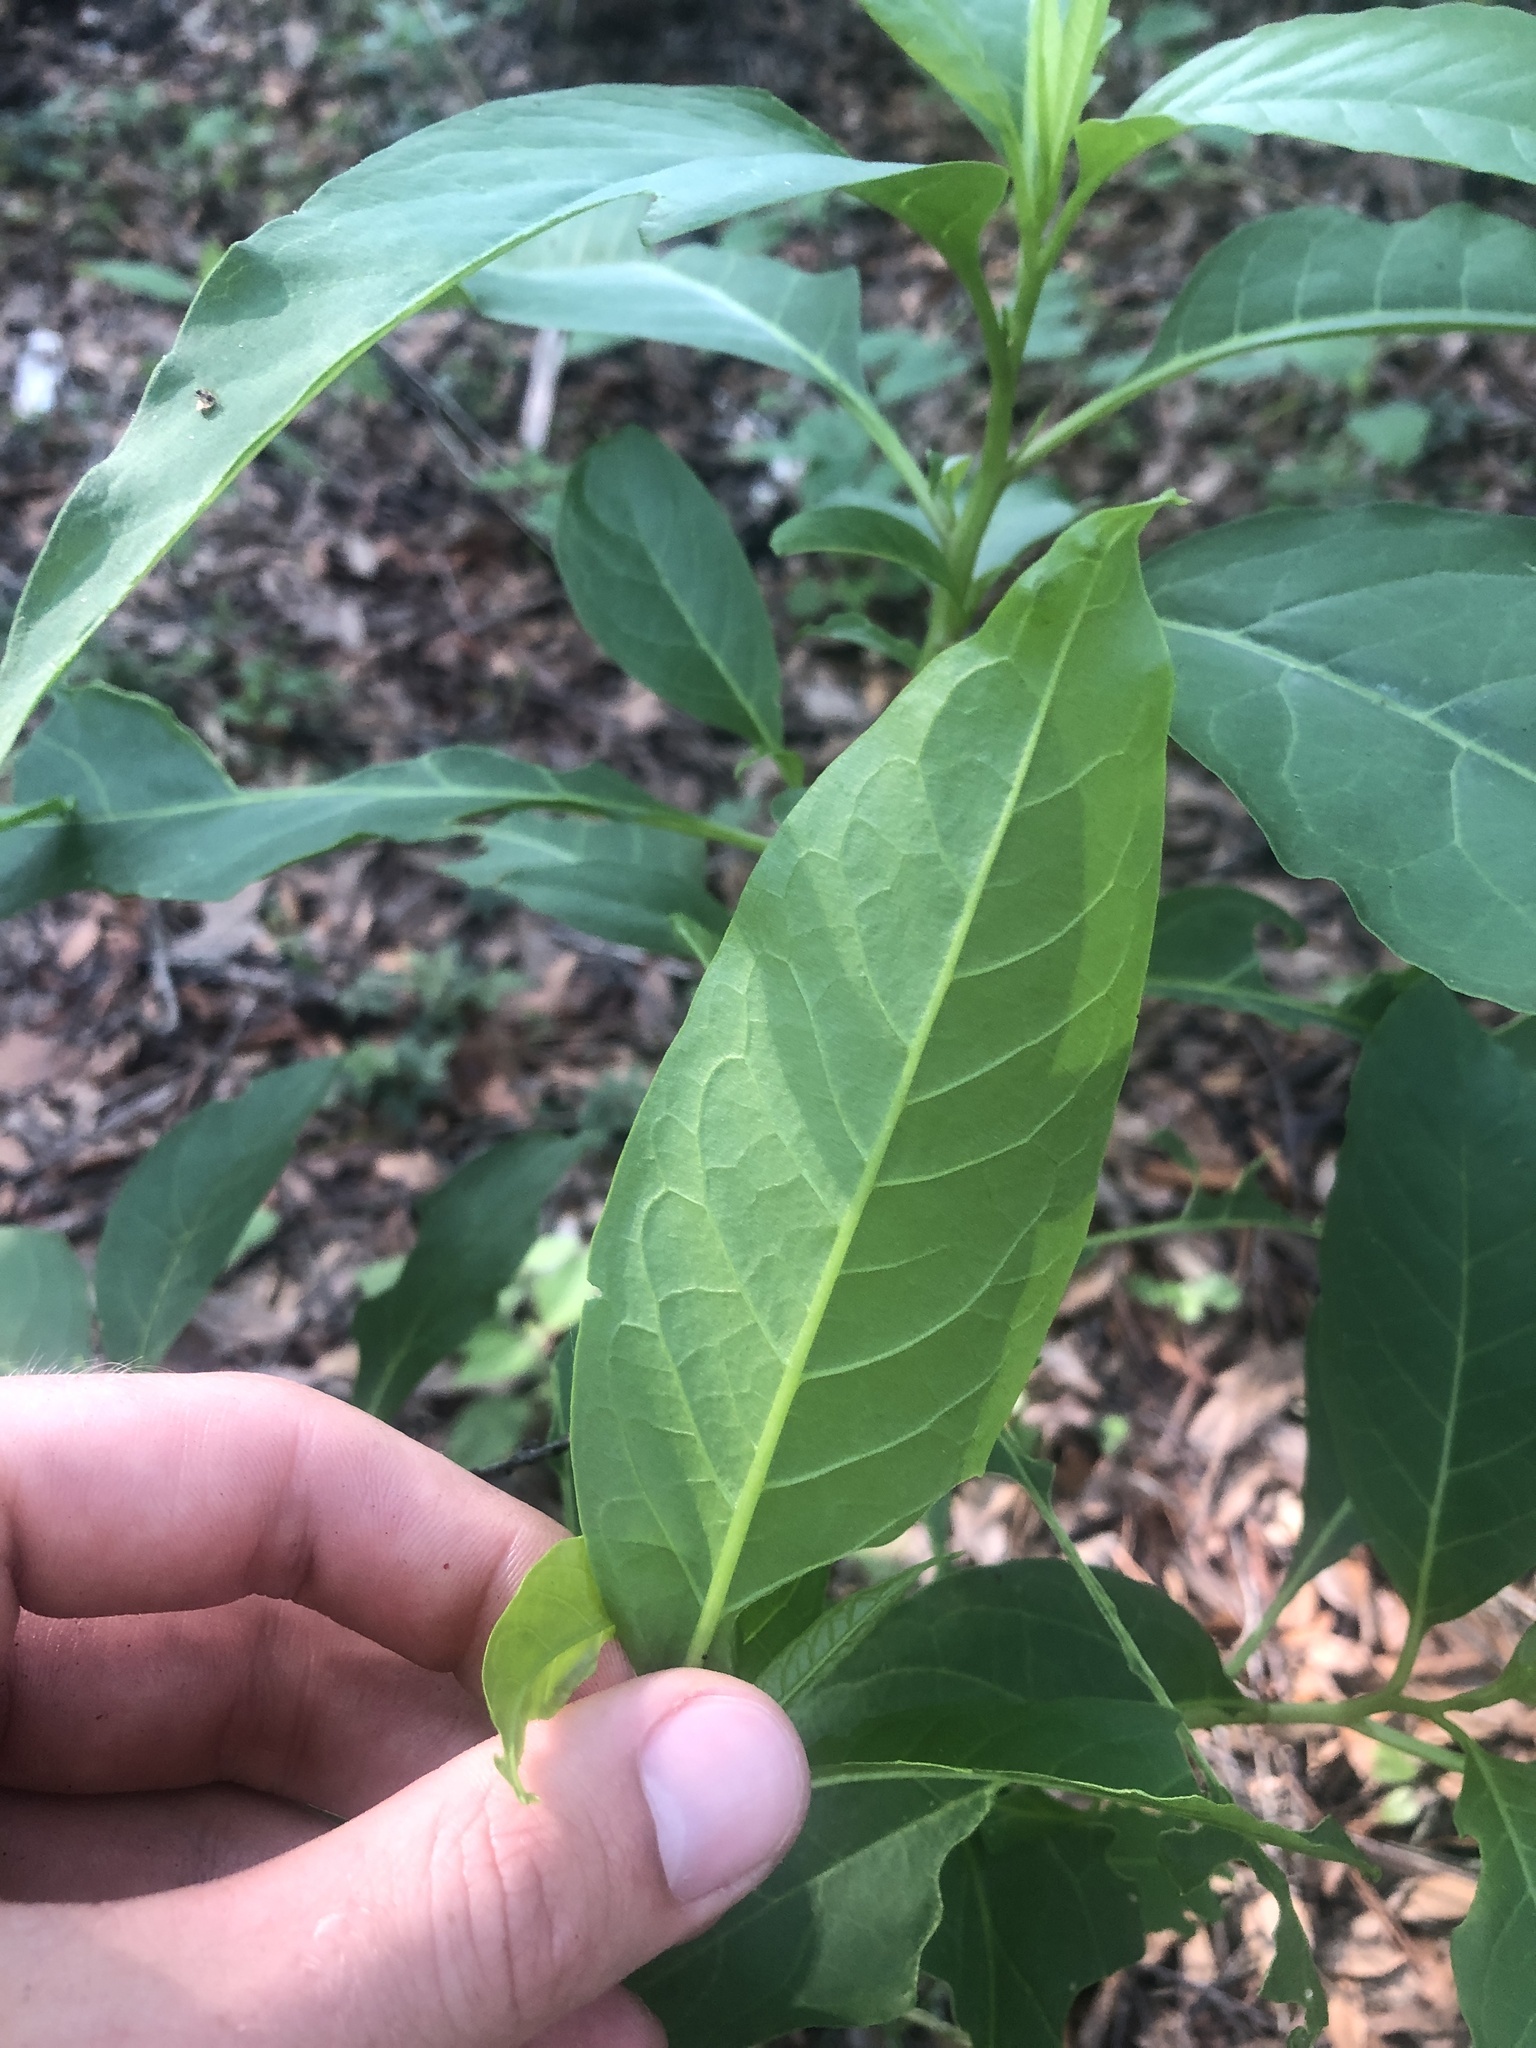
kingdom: Plantae
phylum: Tracheophyta
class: Magnoliopsida
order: Caryophyllales
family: Phytolaccaceae
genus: Phytolacca
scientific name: Phytolacca americana
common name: American pokeweed
